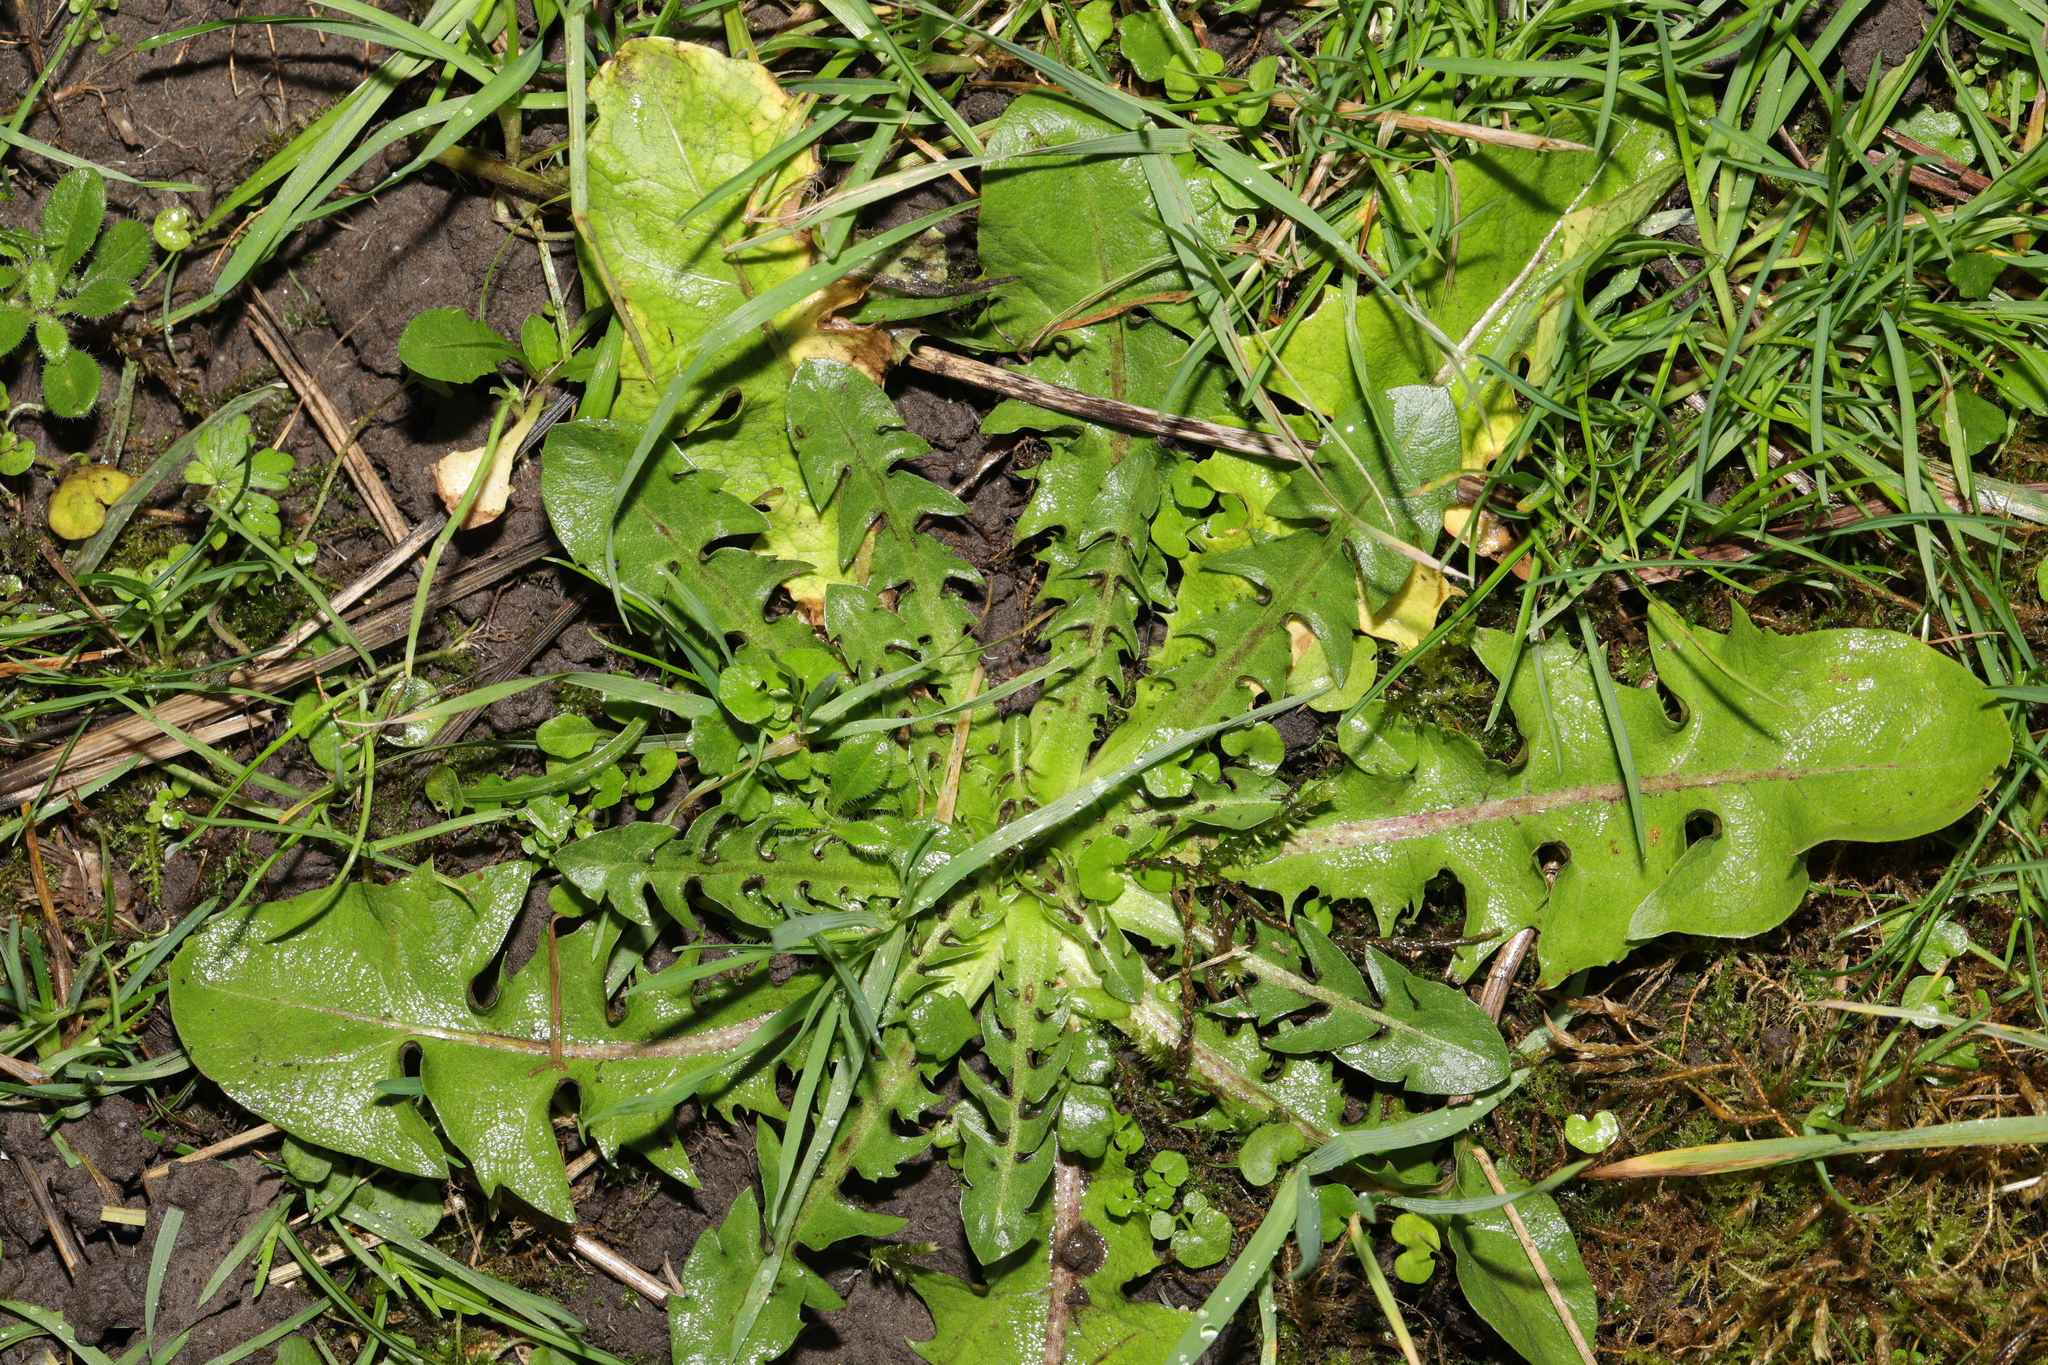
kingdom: Plantae
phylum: Tracheophyta
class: Magnoliopsida
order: Asterales
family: Asteraceae
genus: Taraxacum
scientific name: Taraxacum officinale
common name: Common dandelion
